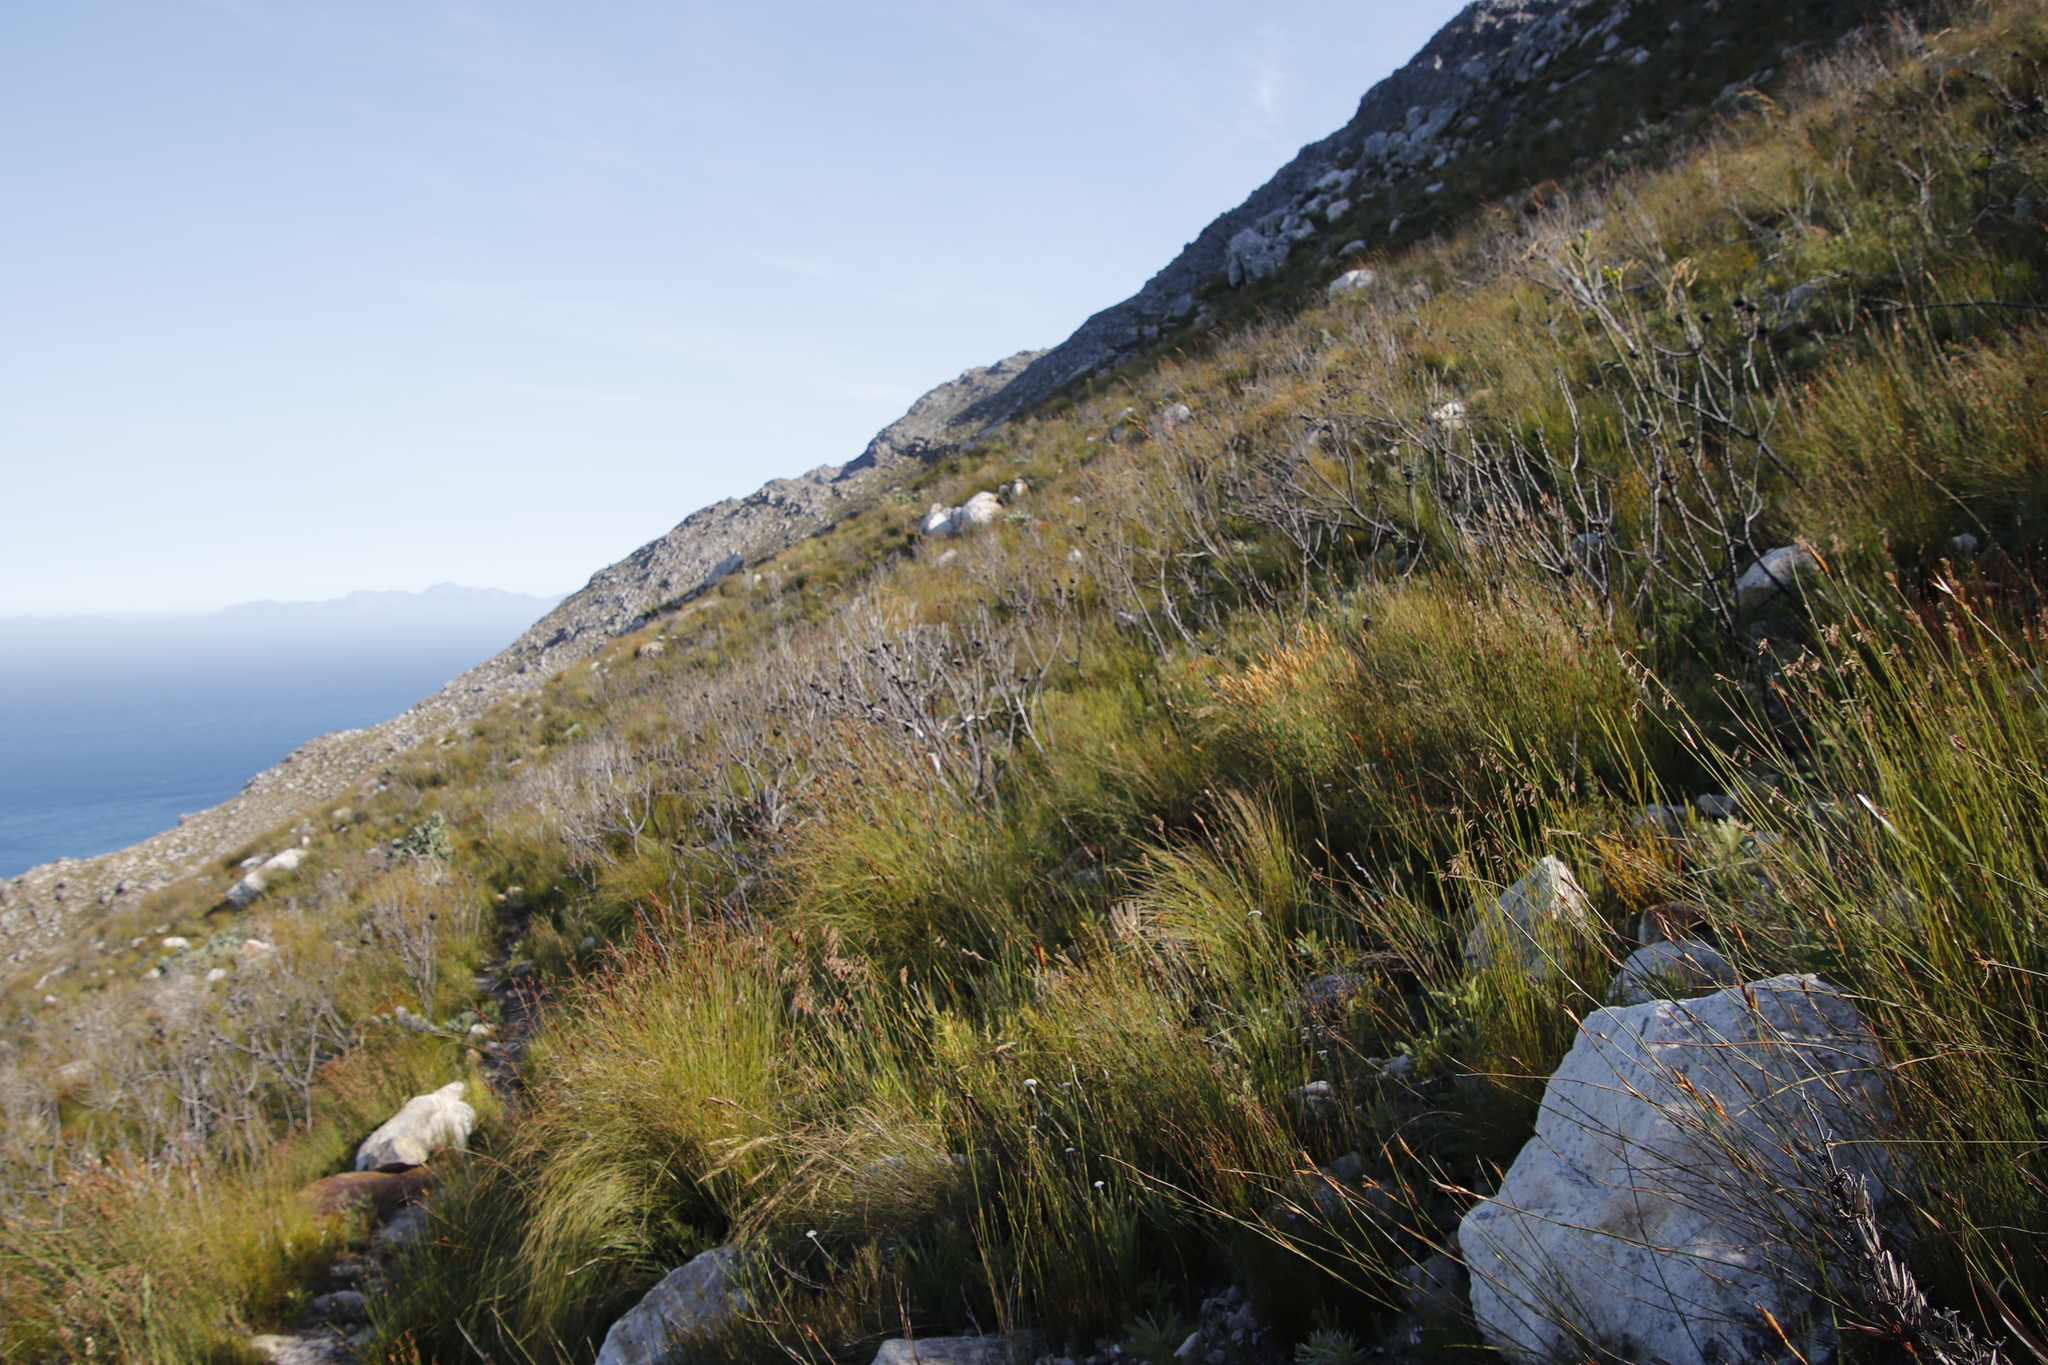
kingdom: Plantae
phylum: Tracheophyta
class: Magnoliopsida
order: Proteales
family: Proteaceae
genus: Protea
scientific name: Protea laurifolia
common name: Grey-leaf sugarbsh
